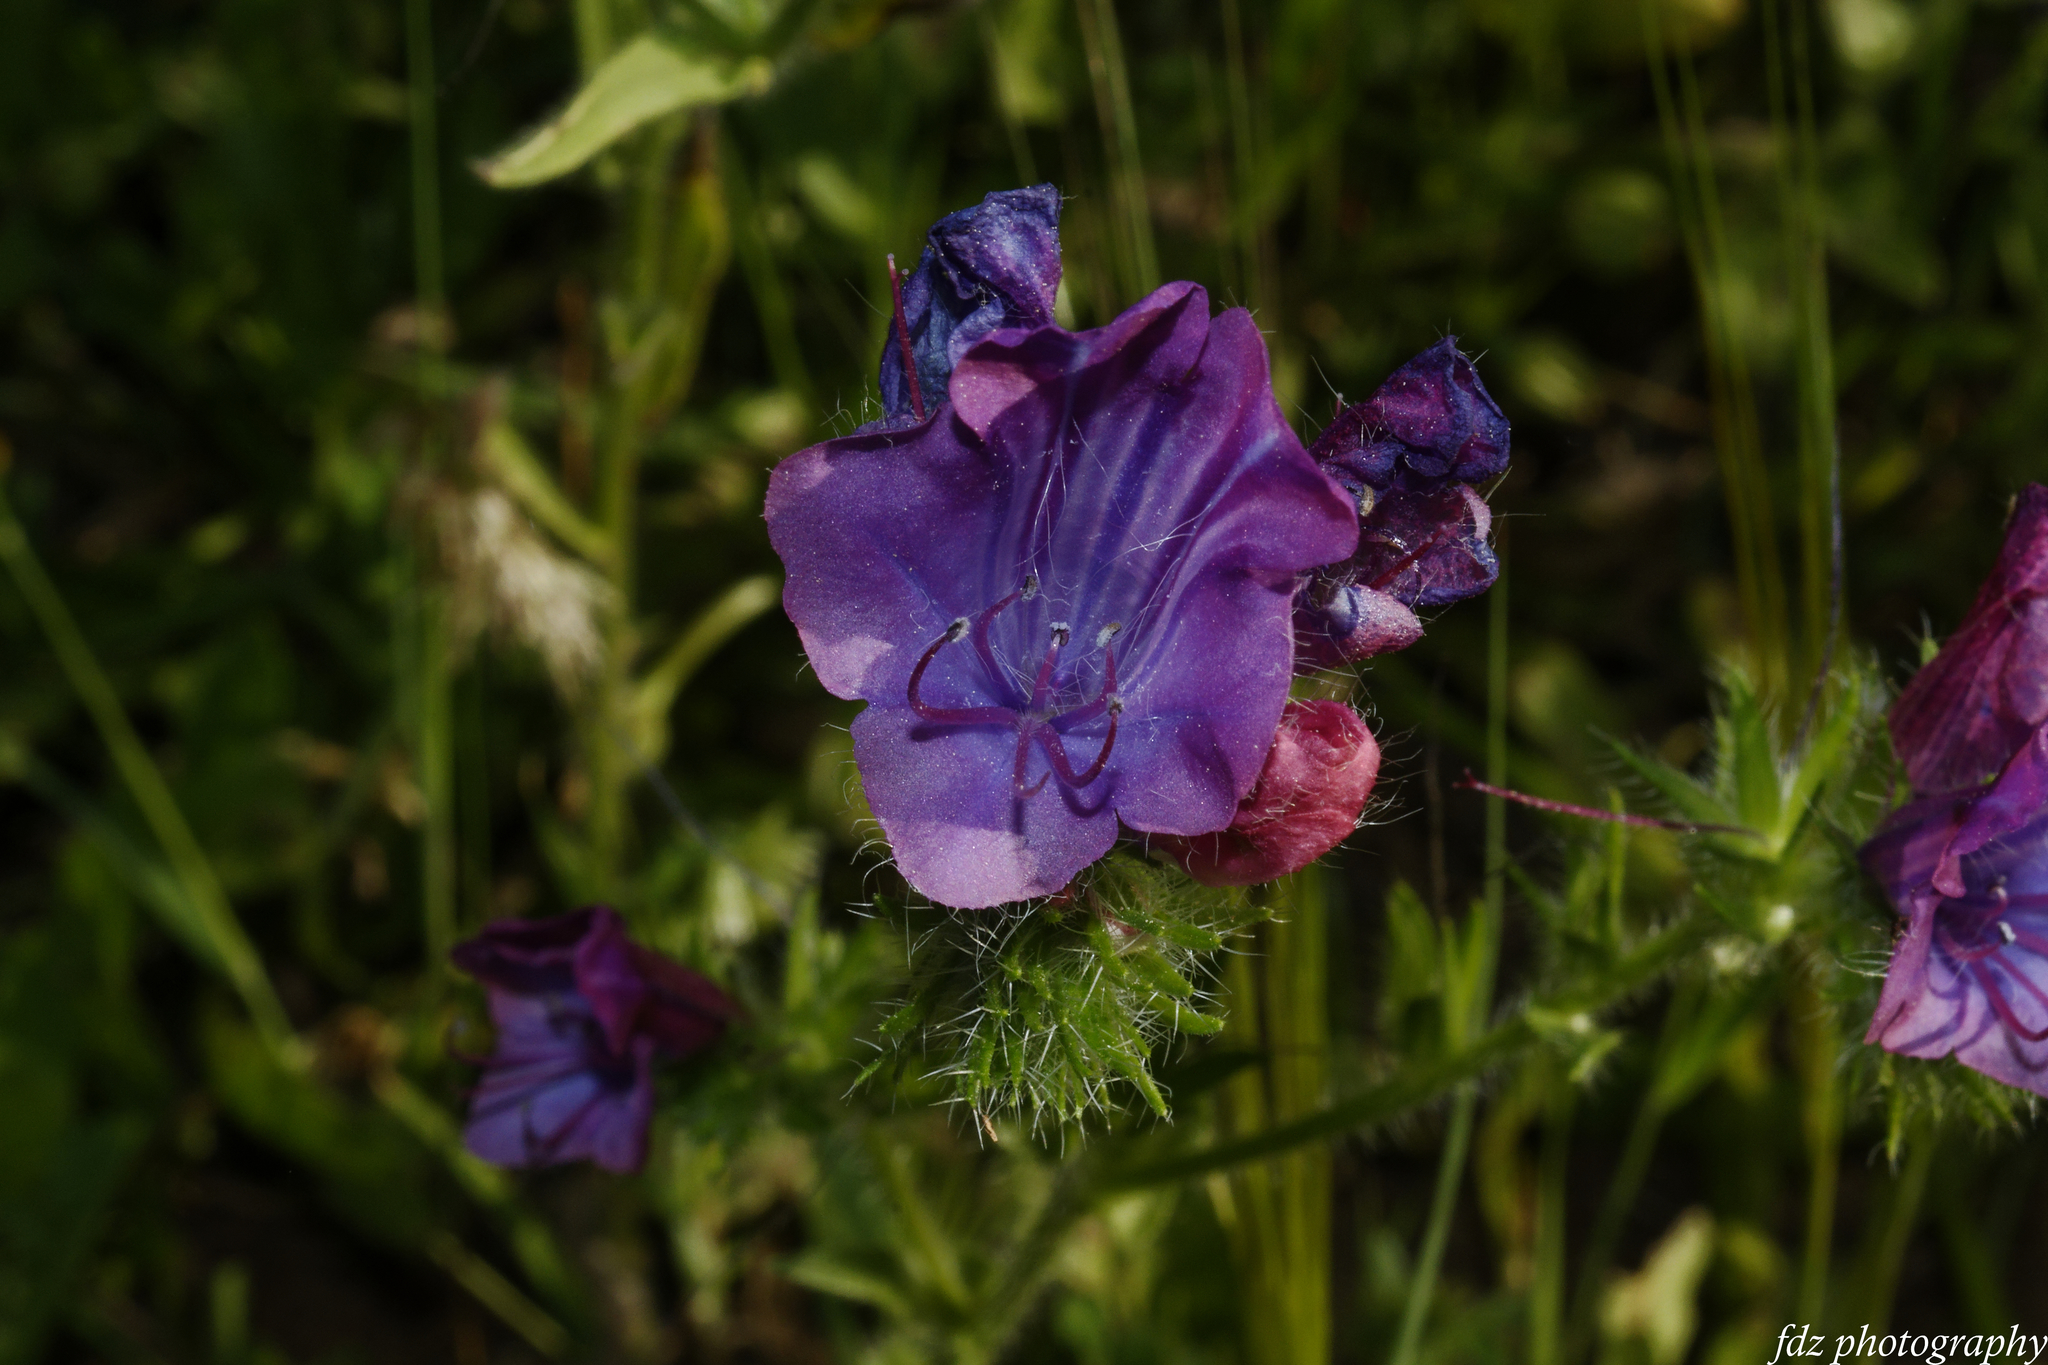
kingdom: Plantae
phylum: Tracheophyta
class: Magnoliopsida
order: Boraginales
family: Boraginaceae
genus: Echium
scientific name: Echium plantagineum
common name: Purple viper's-bugloss
